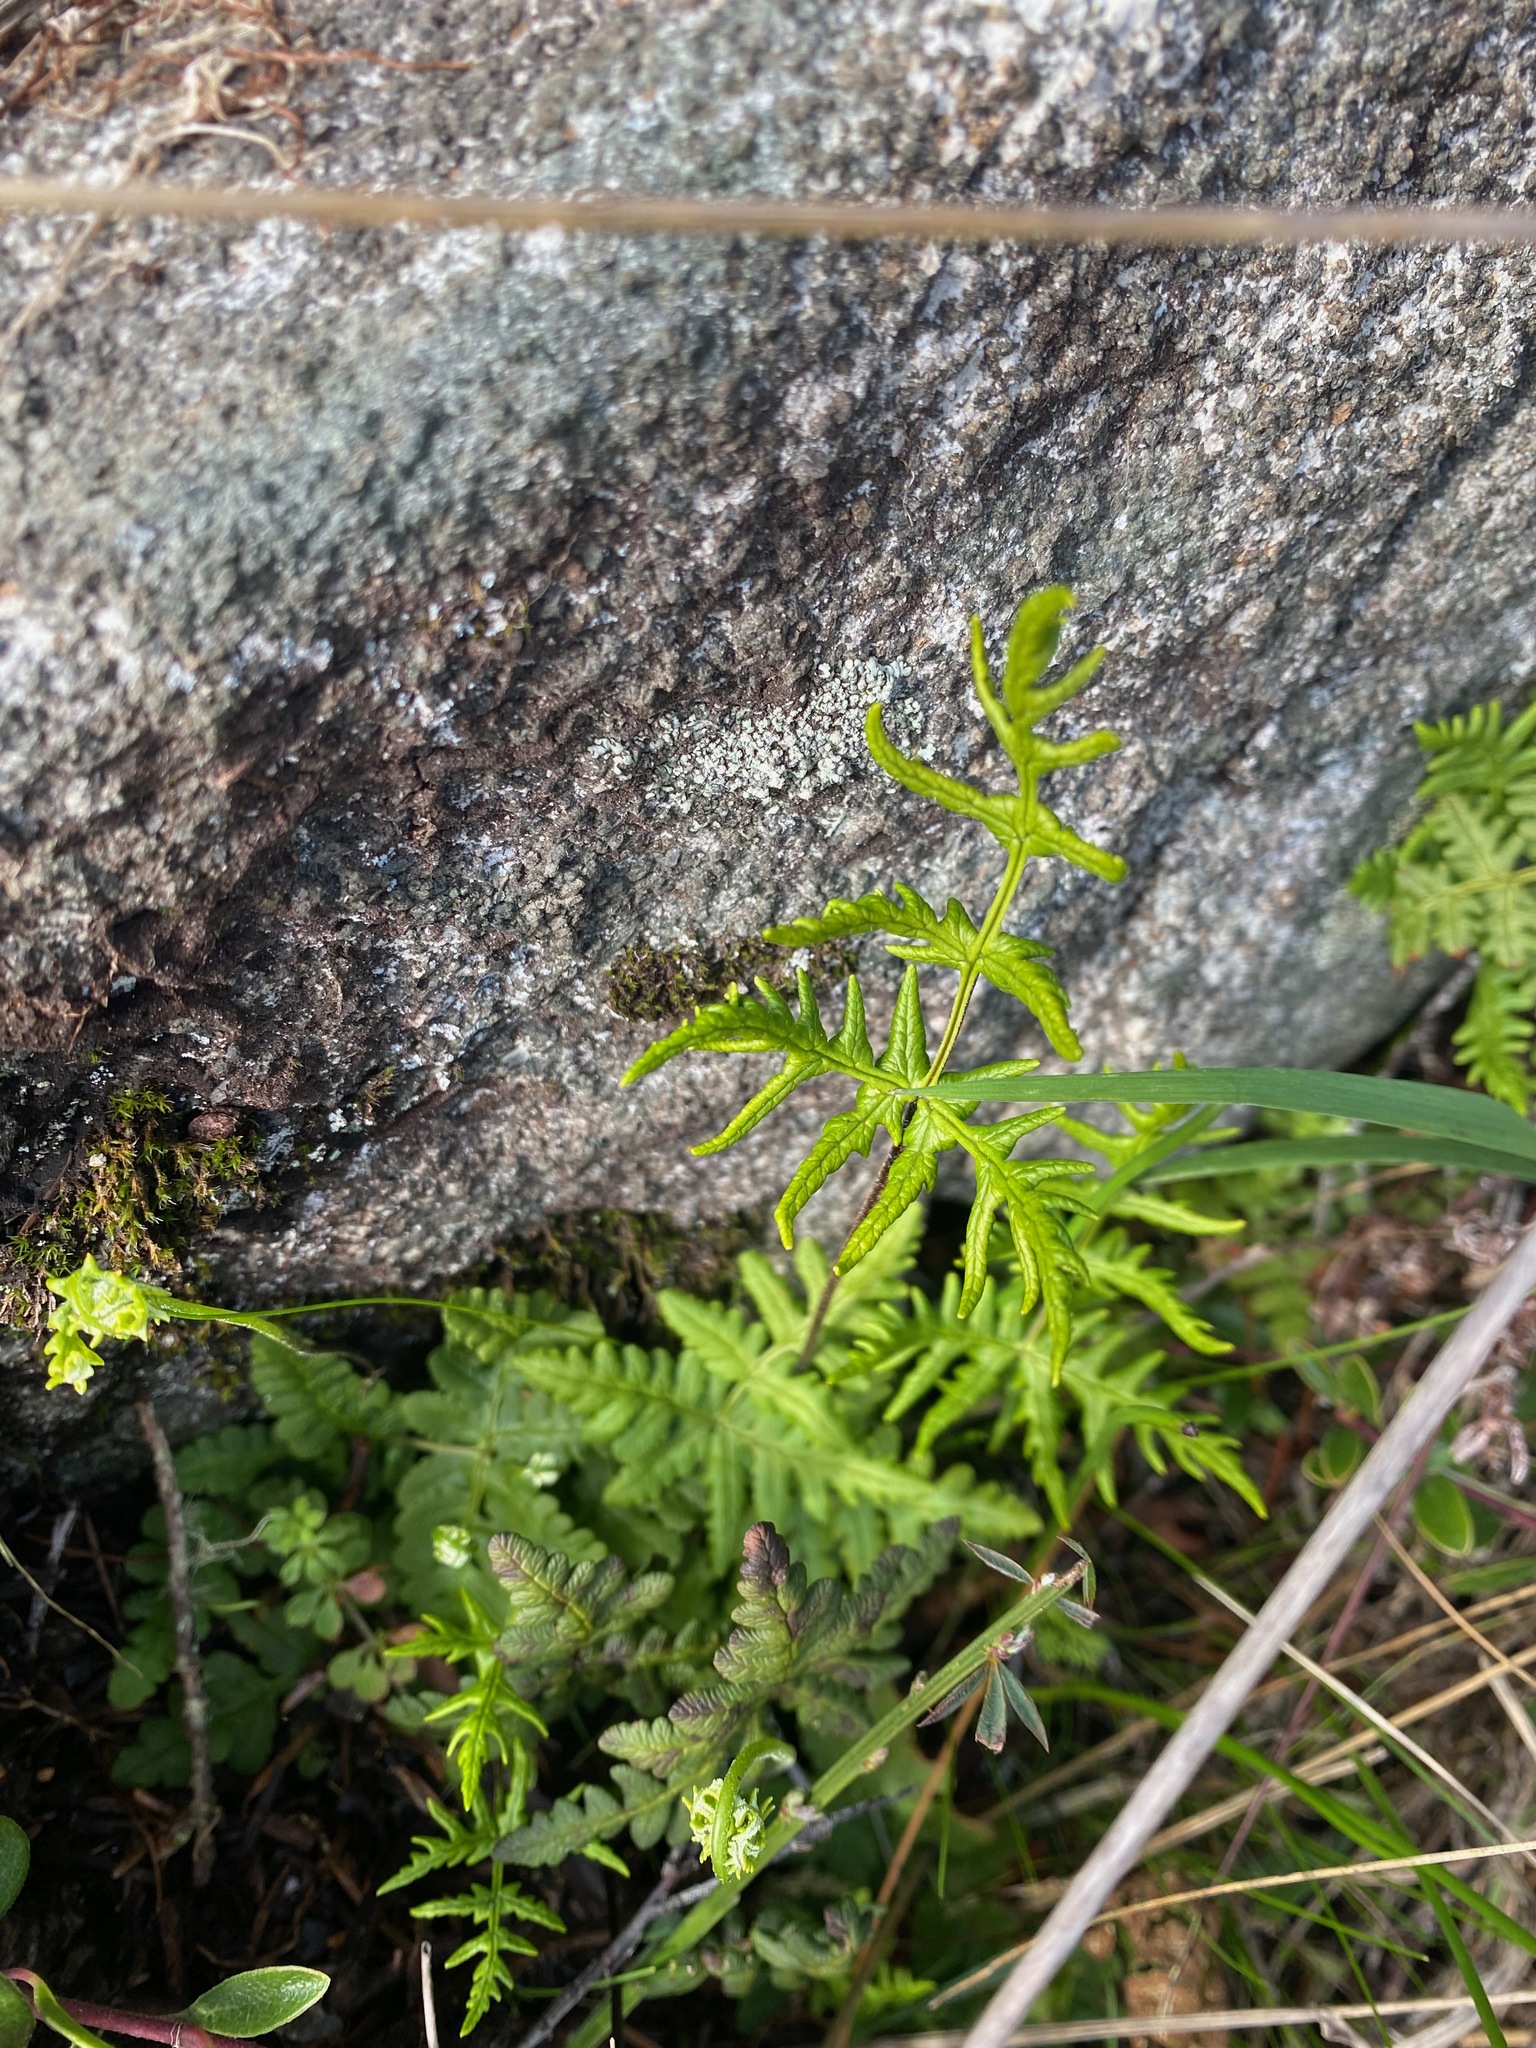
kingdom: Plantae
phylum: Tracheophyta
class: Polypodiopsida
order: Polypodiales
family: Pteridaceae
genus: Pentagramma
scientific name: Pentagramma triangularis
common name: Gold fern
